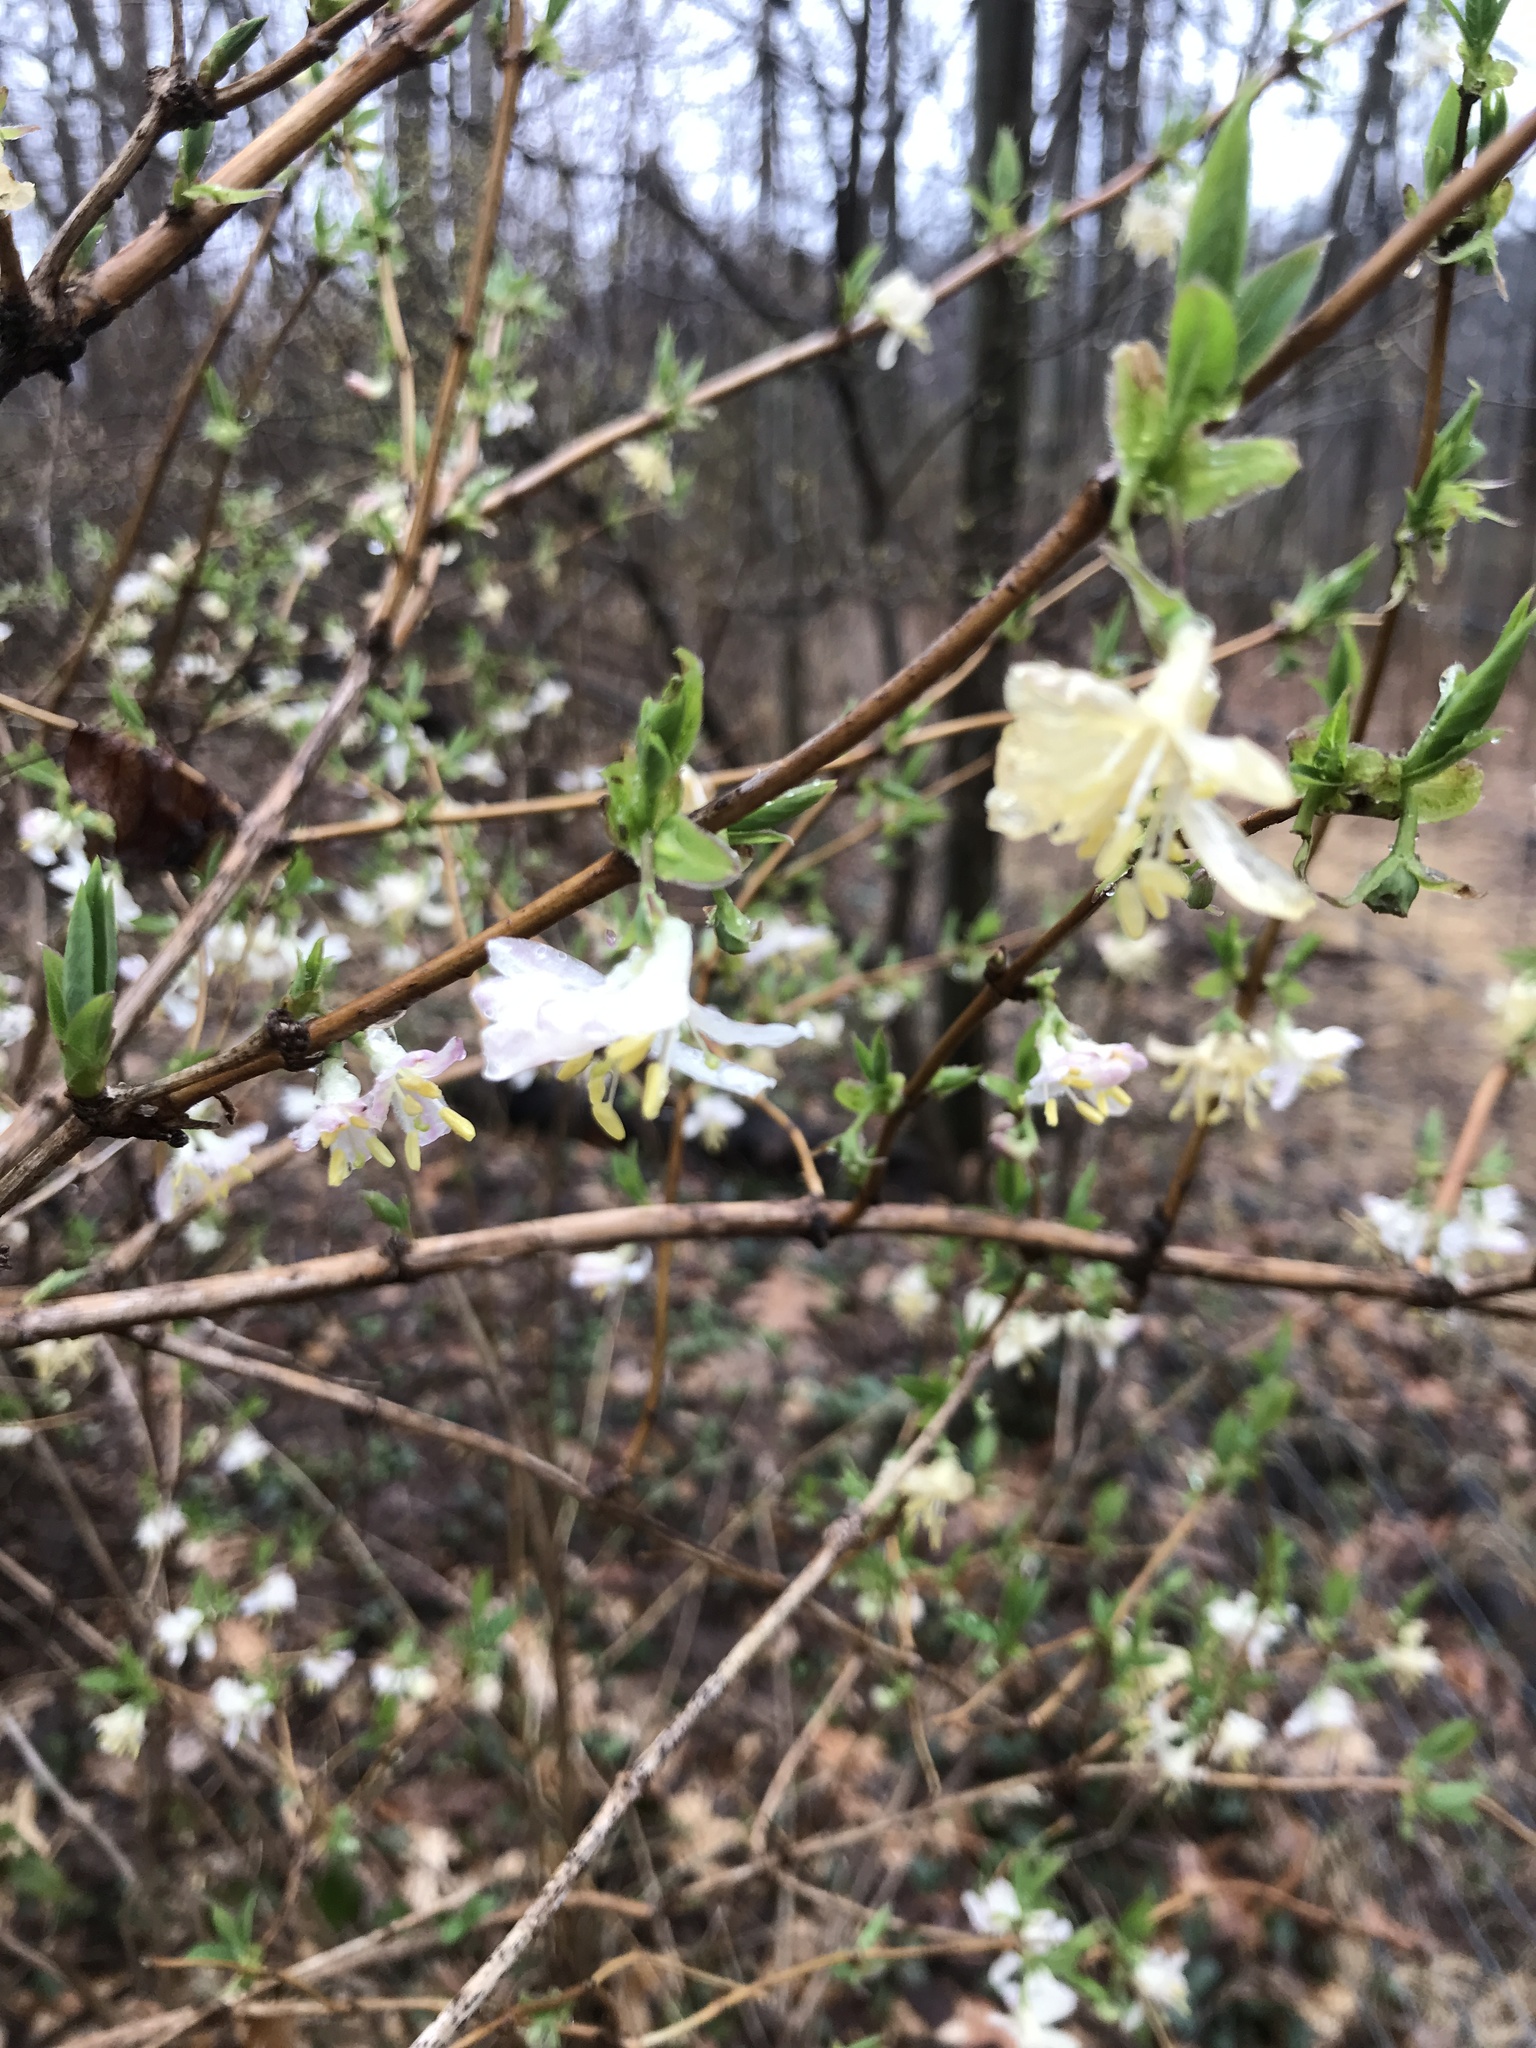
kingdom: Plantae
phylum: Tracheophyta
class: Magnoliopsida
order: Dipsacales
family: Caprifoliaceae
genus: Lonicera
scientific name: Lonicera fragrantissima
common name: Fragrant honeysuckle
